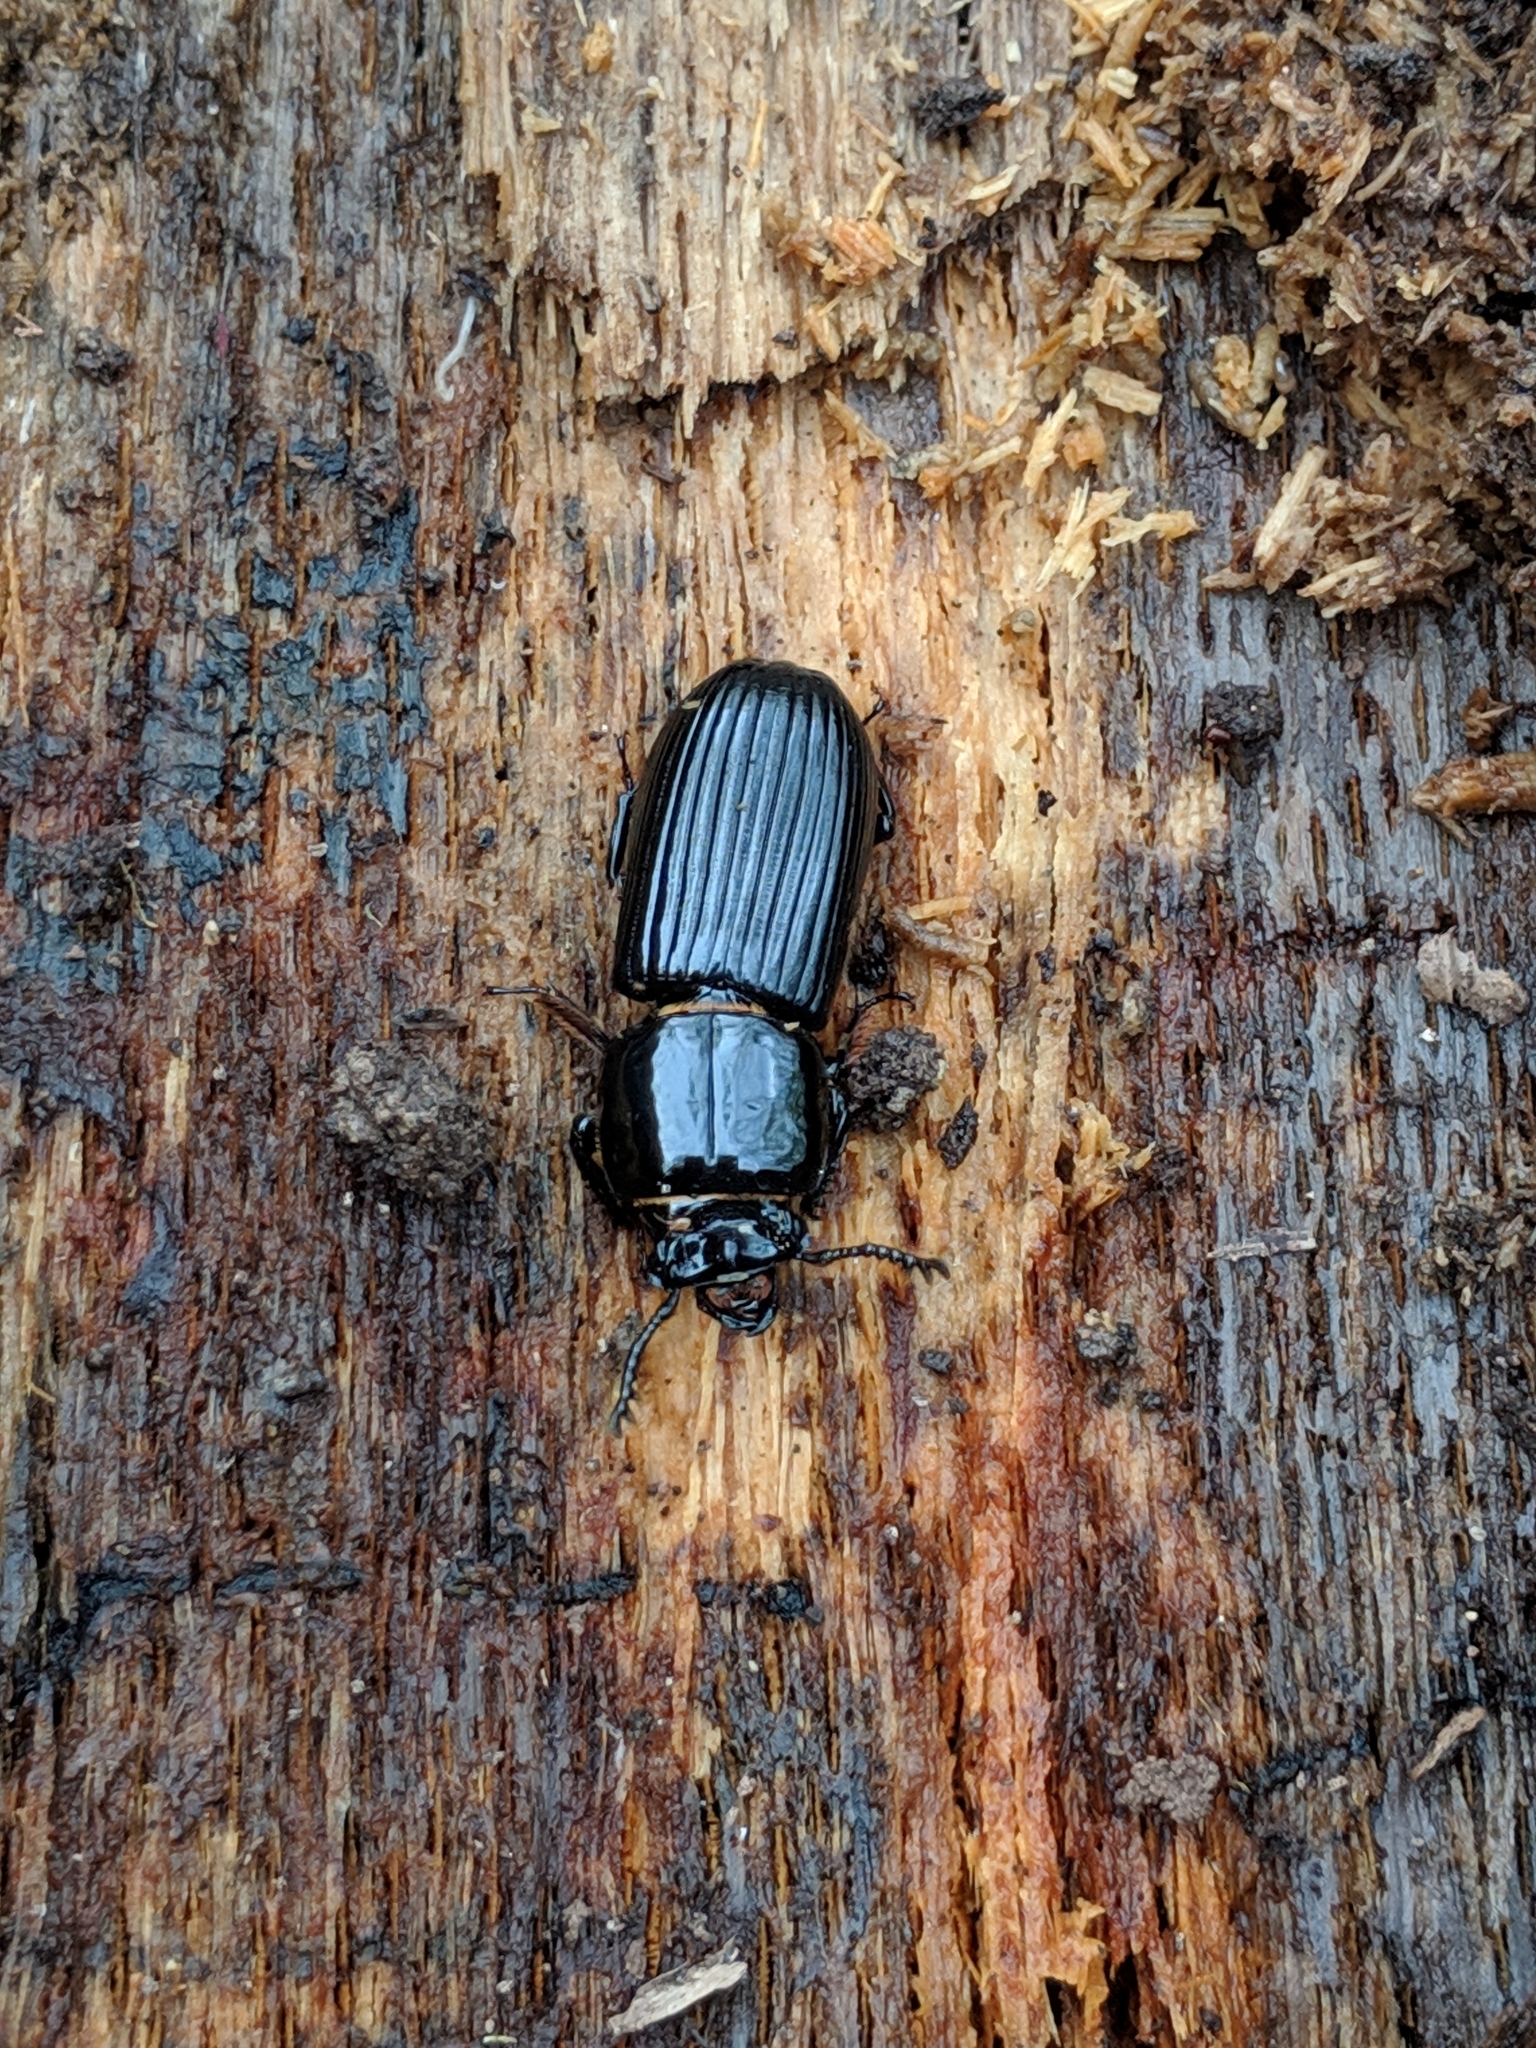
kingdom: Animalia
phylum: Arthropoda
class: Insecta
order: Coleoptera
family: Passalidae
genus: Odontotaenius
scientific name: Odontotaenius disjunctus
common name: Patent leather beetle
